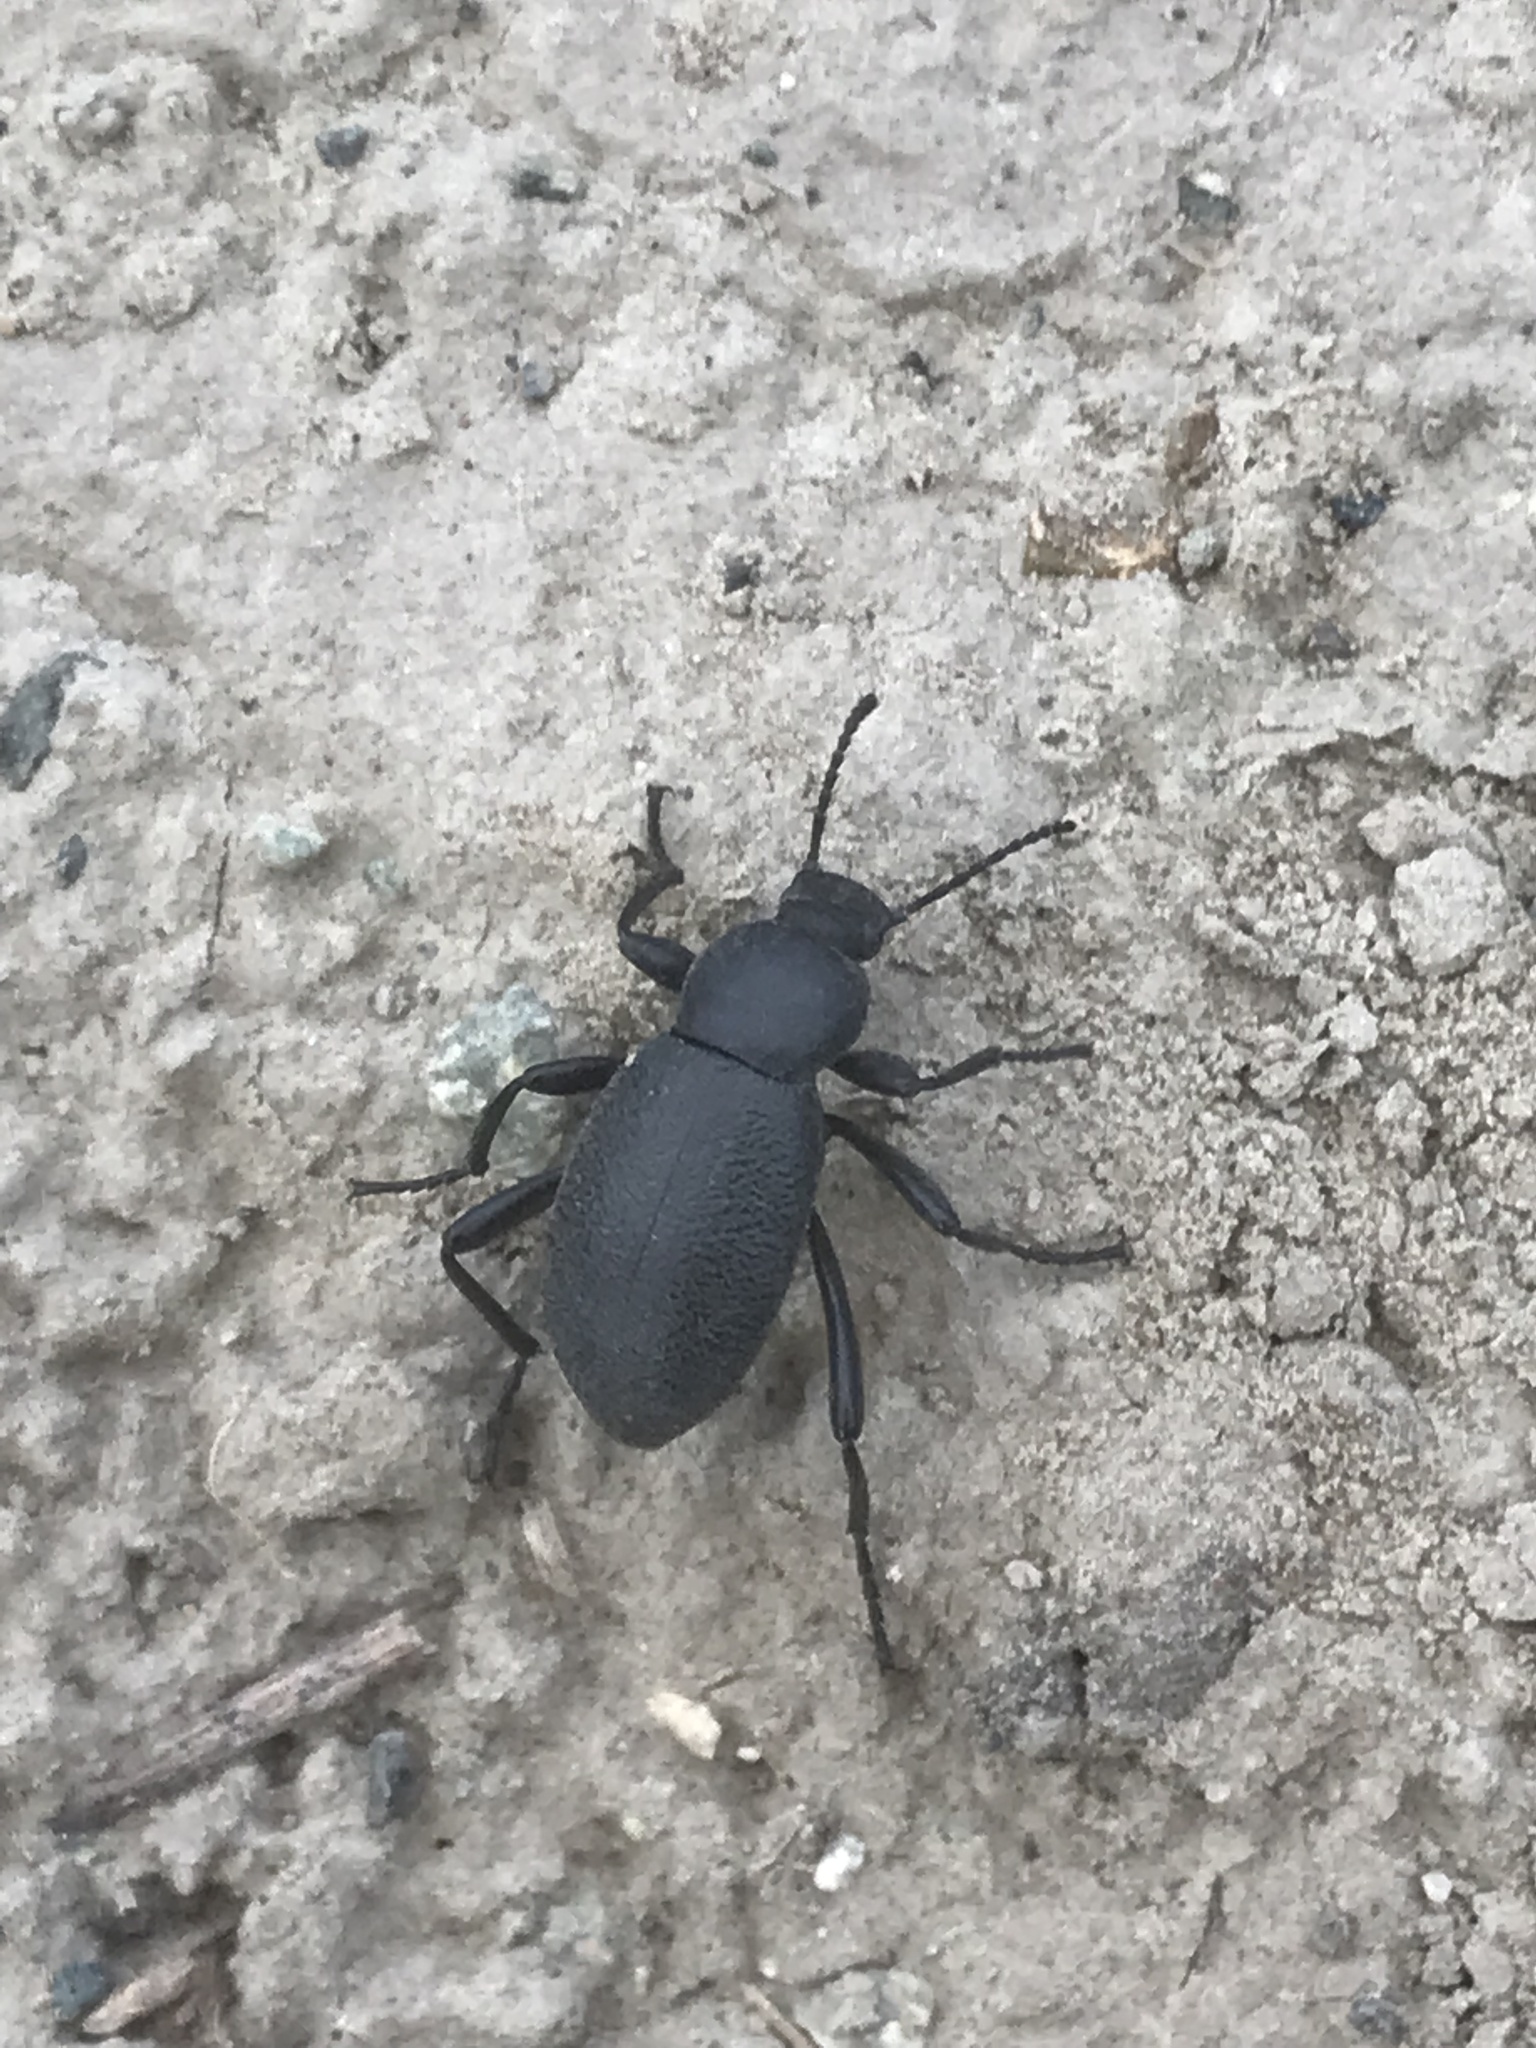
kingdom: Animalia
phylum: Arthropoda
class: Insecta
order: Coleoptera
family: Tenebrionidae
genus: Eleodes
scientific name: Eleodes granulata
